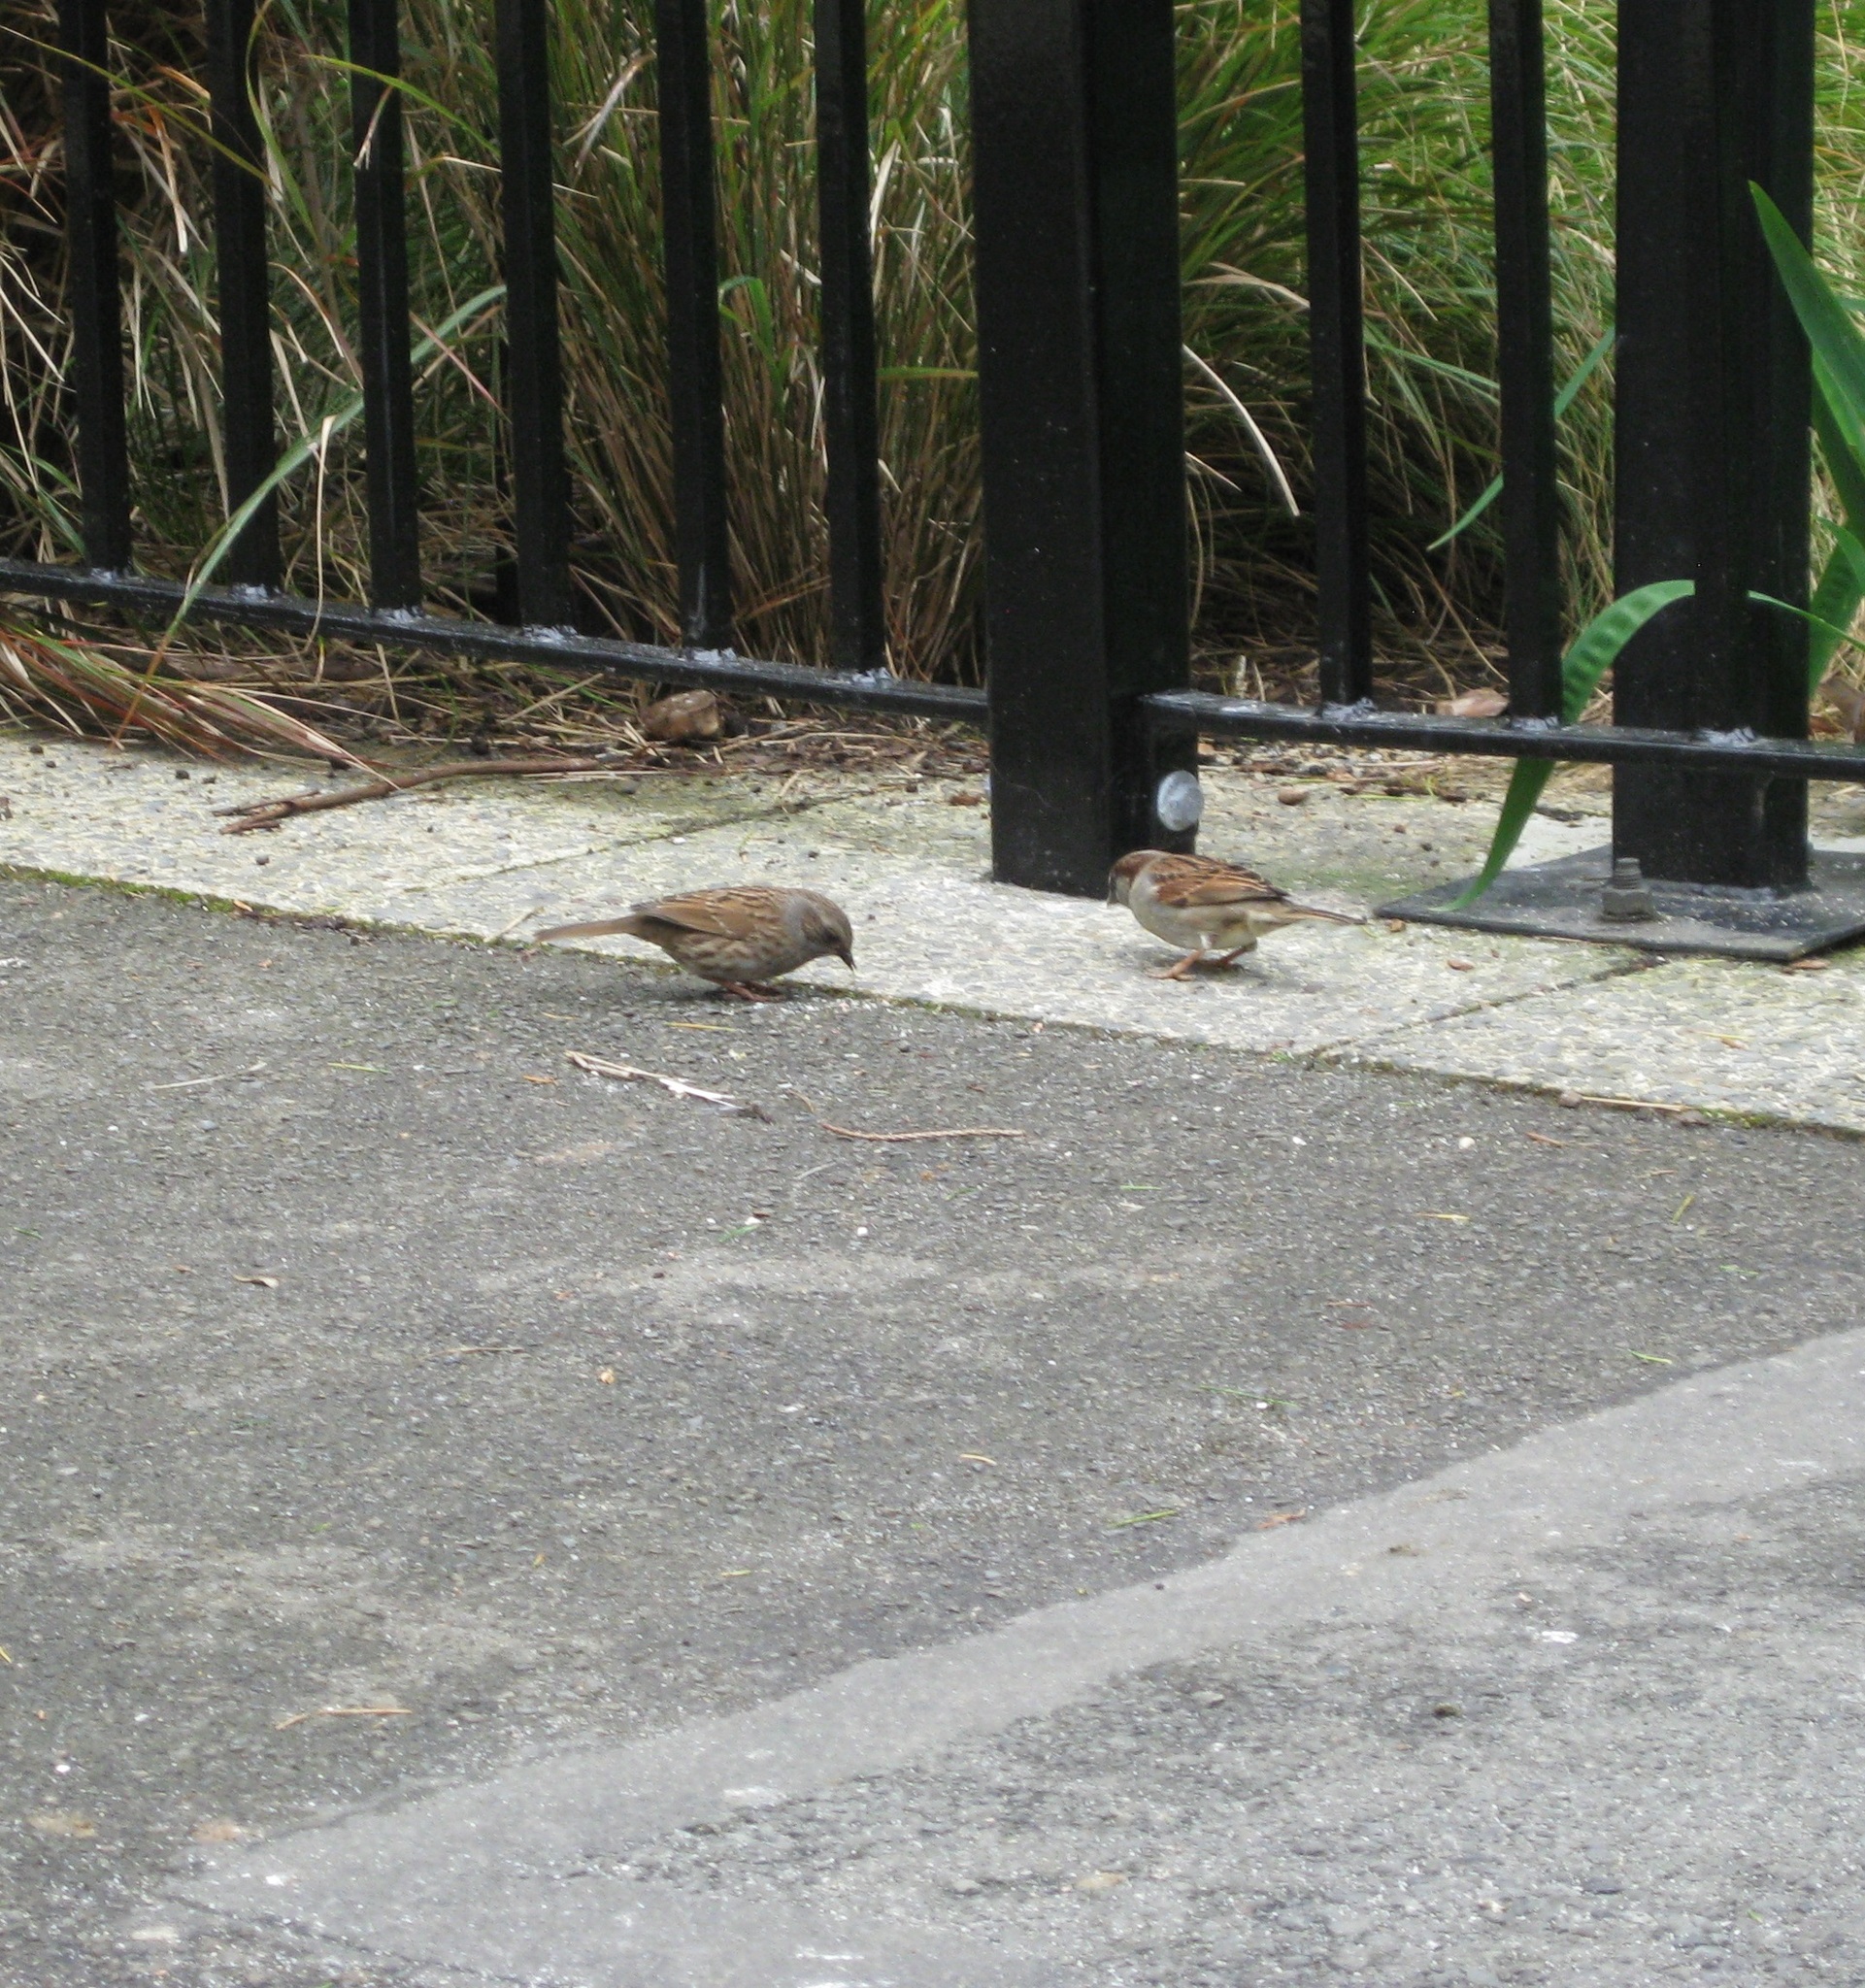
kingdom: Animalia
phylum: Chordata
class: Aves
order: Passeriformes
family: Prunellidae
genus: Prunella
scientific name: Prunella modularis
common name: Dunnock
